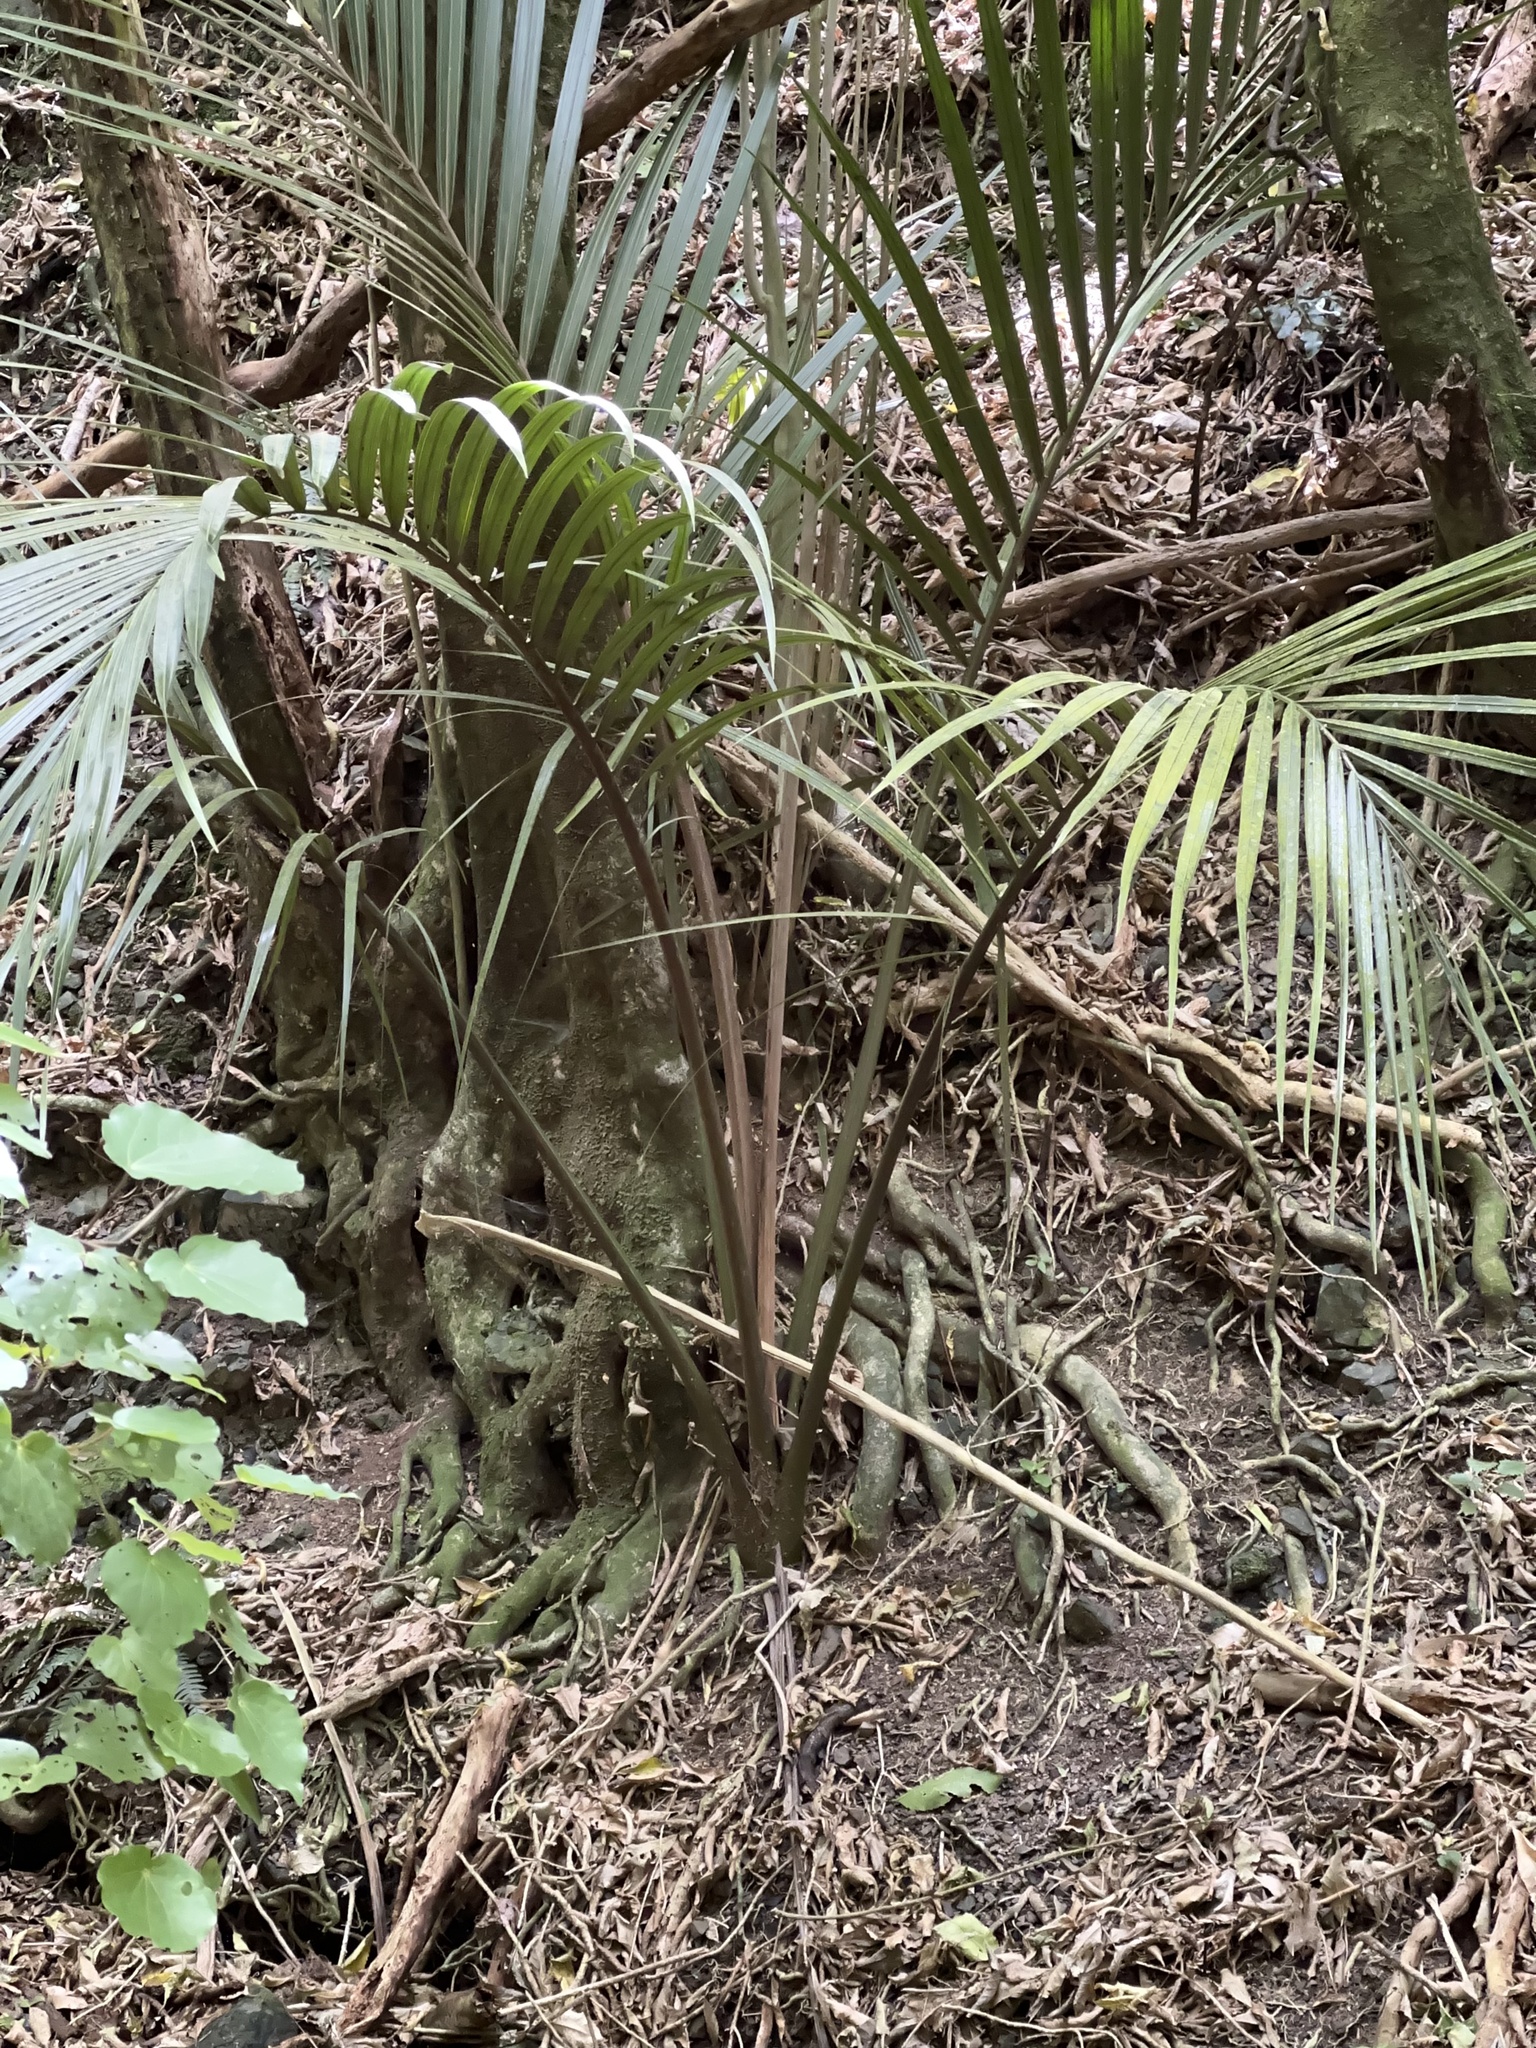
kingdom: Plantae
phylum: Tracheophyta
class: Liliopsida
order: Arecales
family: Arecaceae
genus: Rhopalostylis
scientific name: Rhopalostylis sapida
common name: Feather-duster palm
